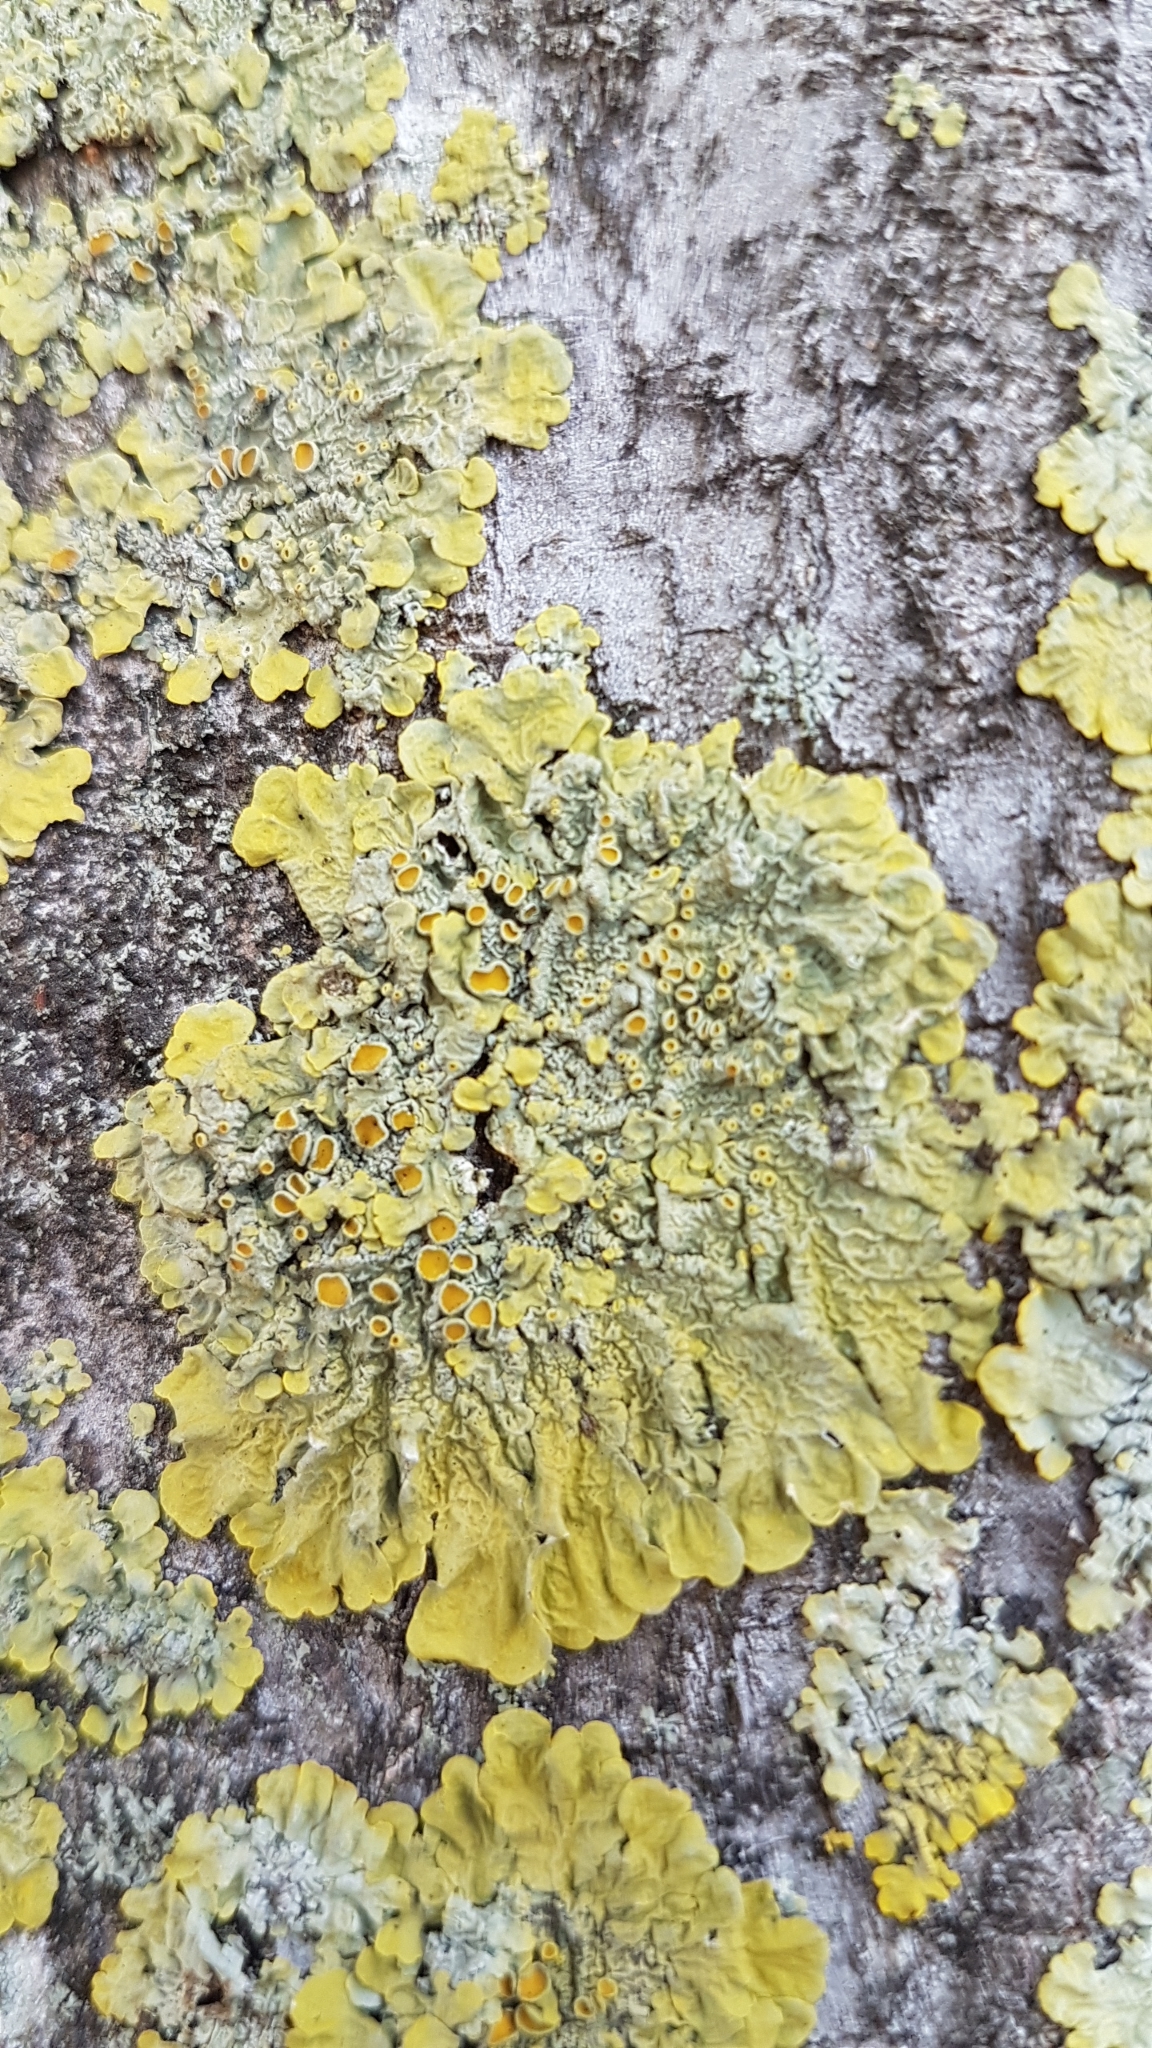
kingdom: Fungi
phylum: Ascomycota
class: Lecanoromycetes
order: Teloschistales
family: Teloschistaceae
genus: Xanthoria
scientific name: Xanthoria parietina
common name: Common orange lichen
